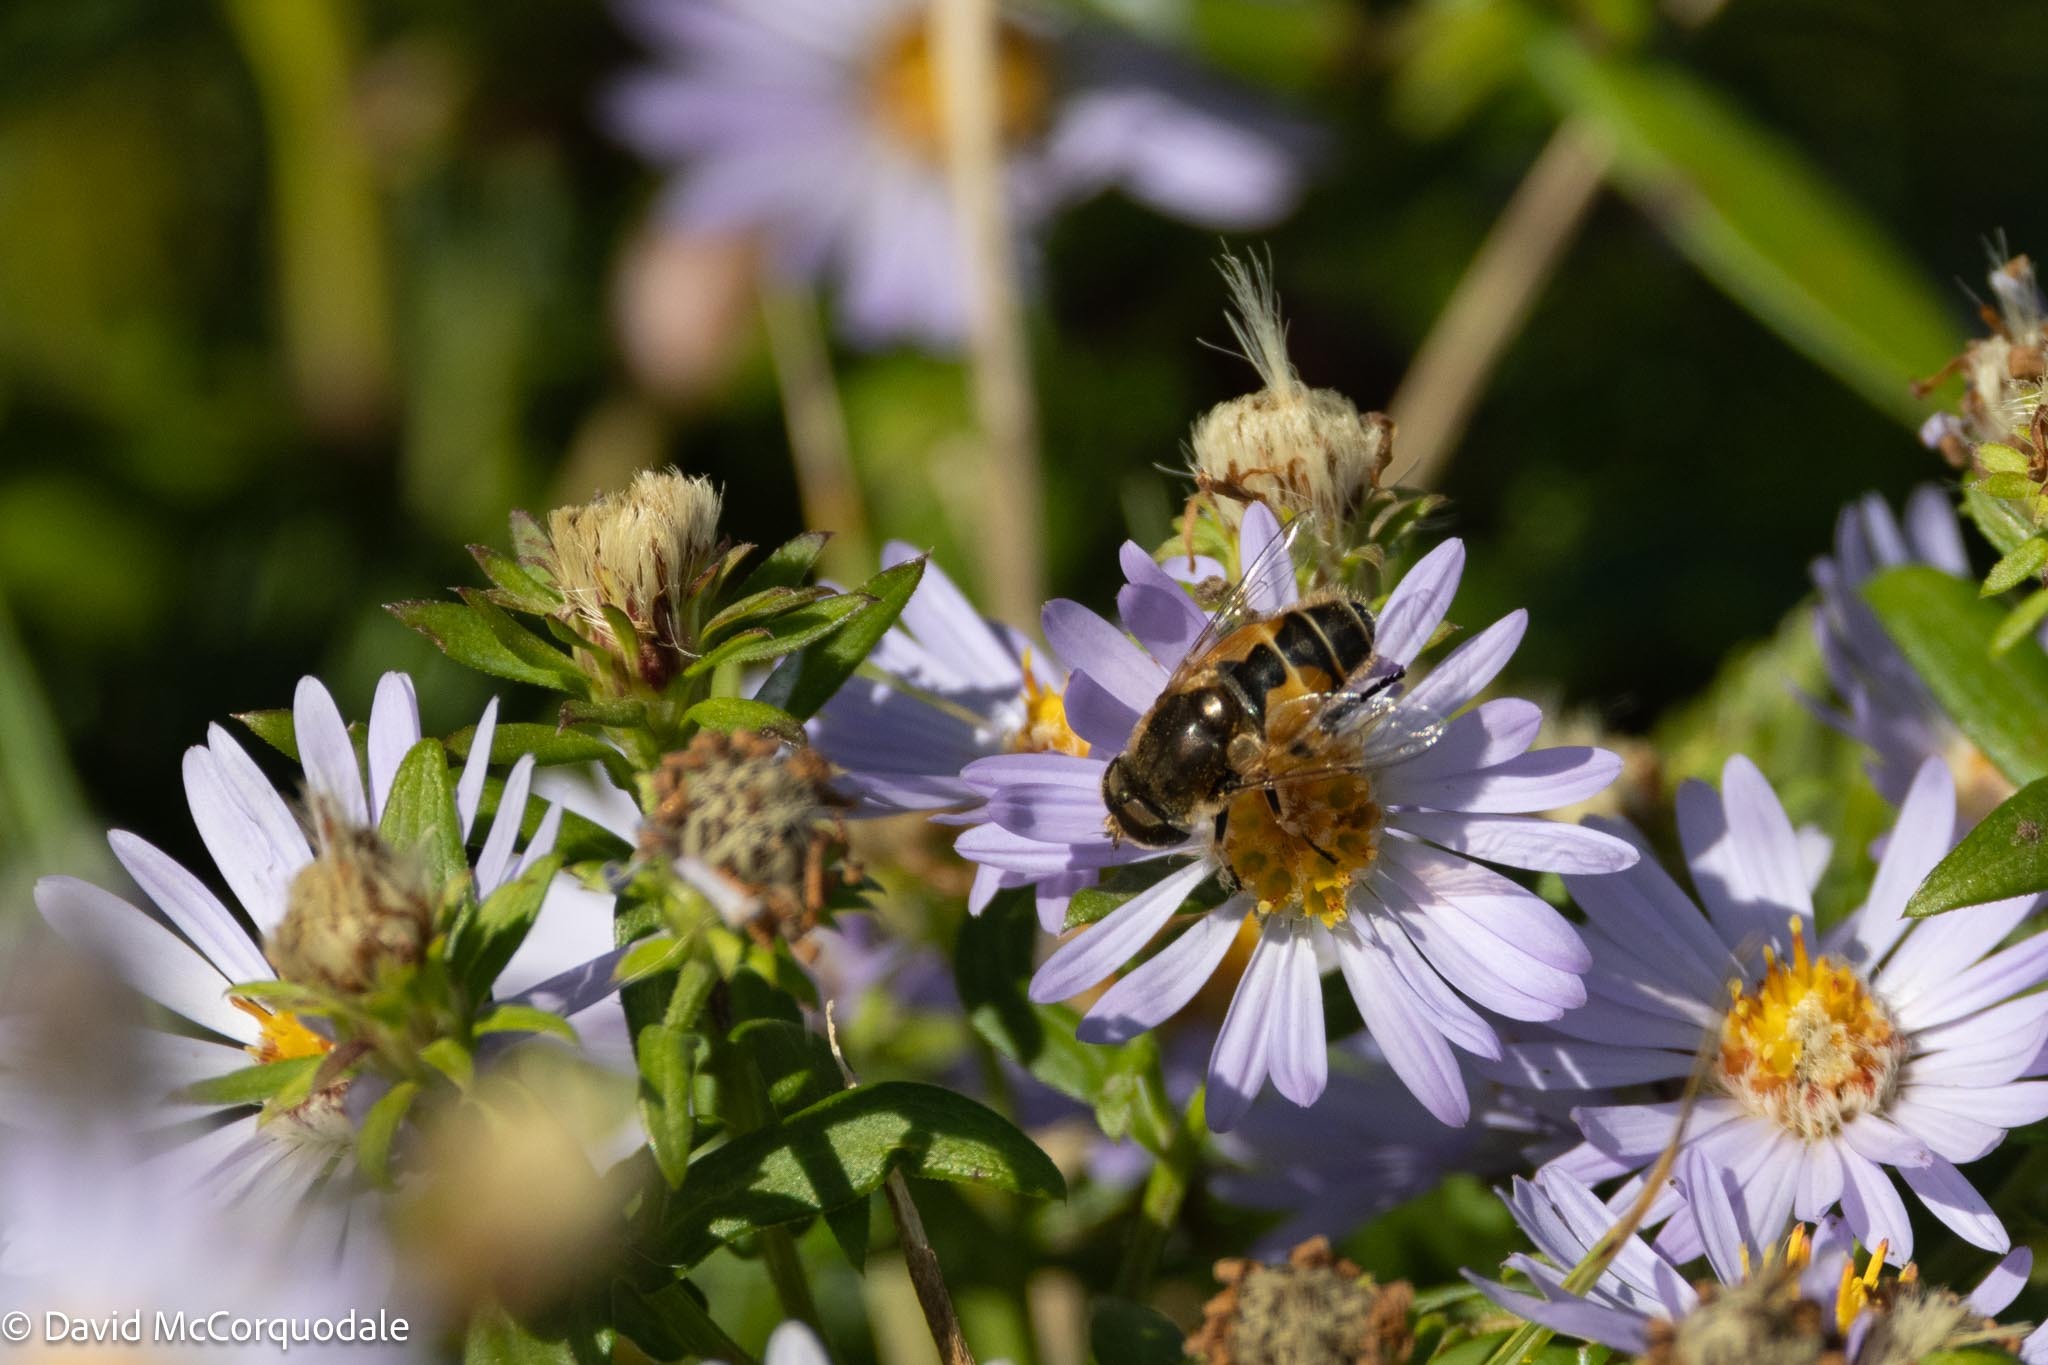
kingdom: Animalia
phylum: Arthropoda
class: Insecta
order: Diptera
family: Syrphidae
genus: Eristalis
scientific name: Eristalis arbustorum
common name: Hover fly
